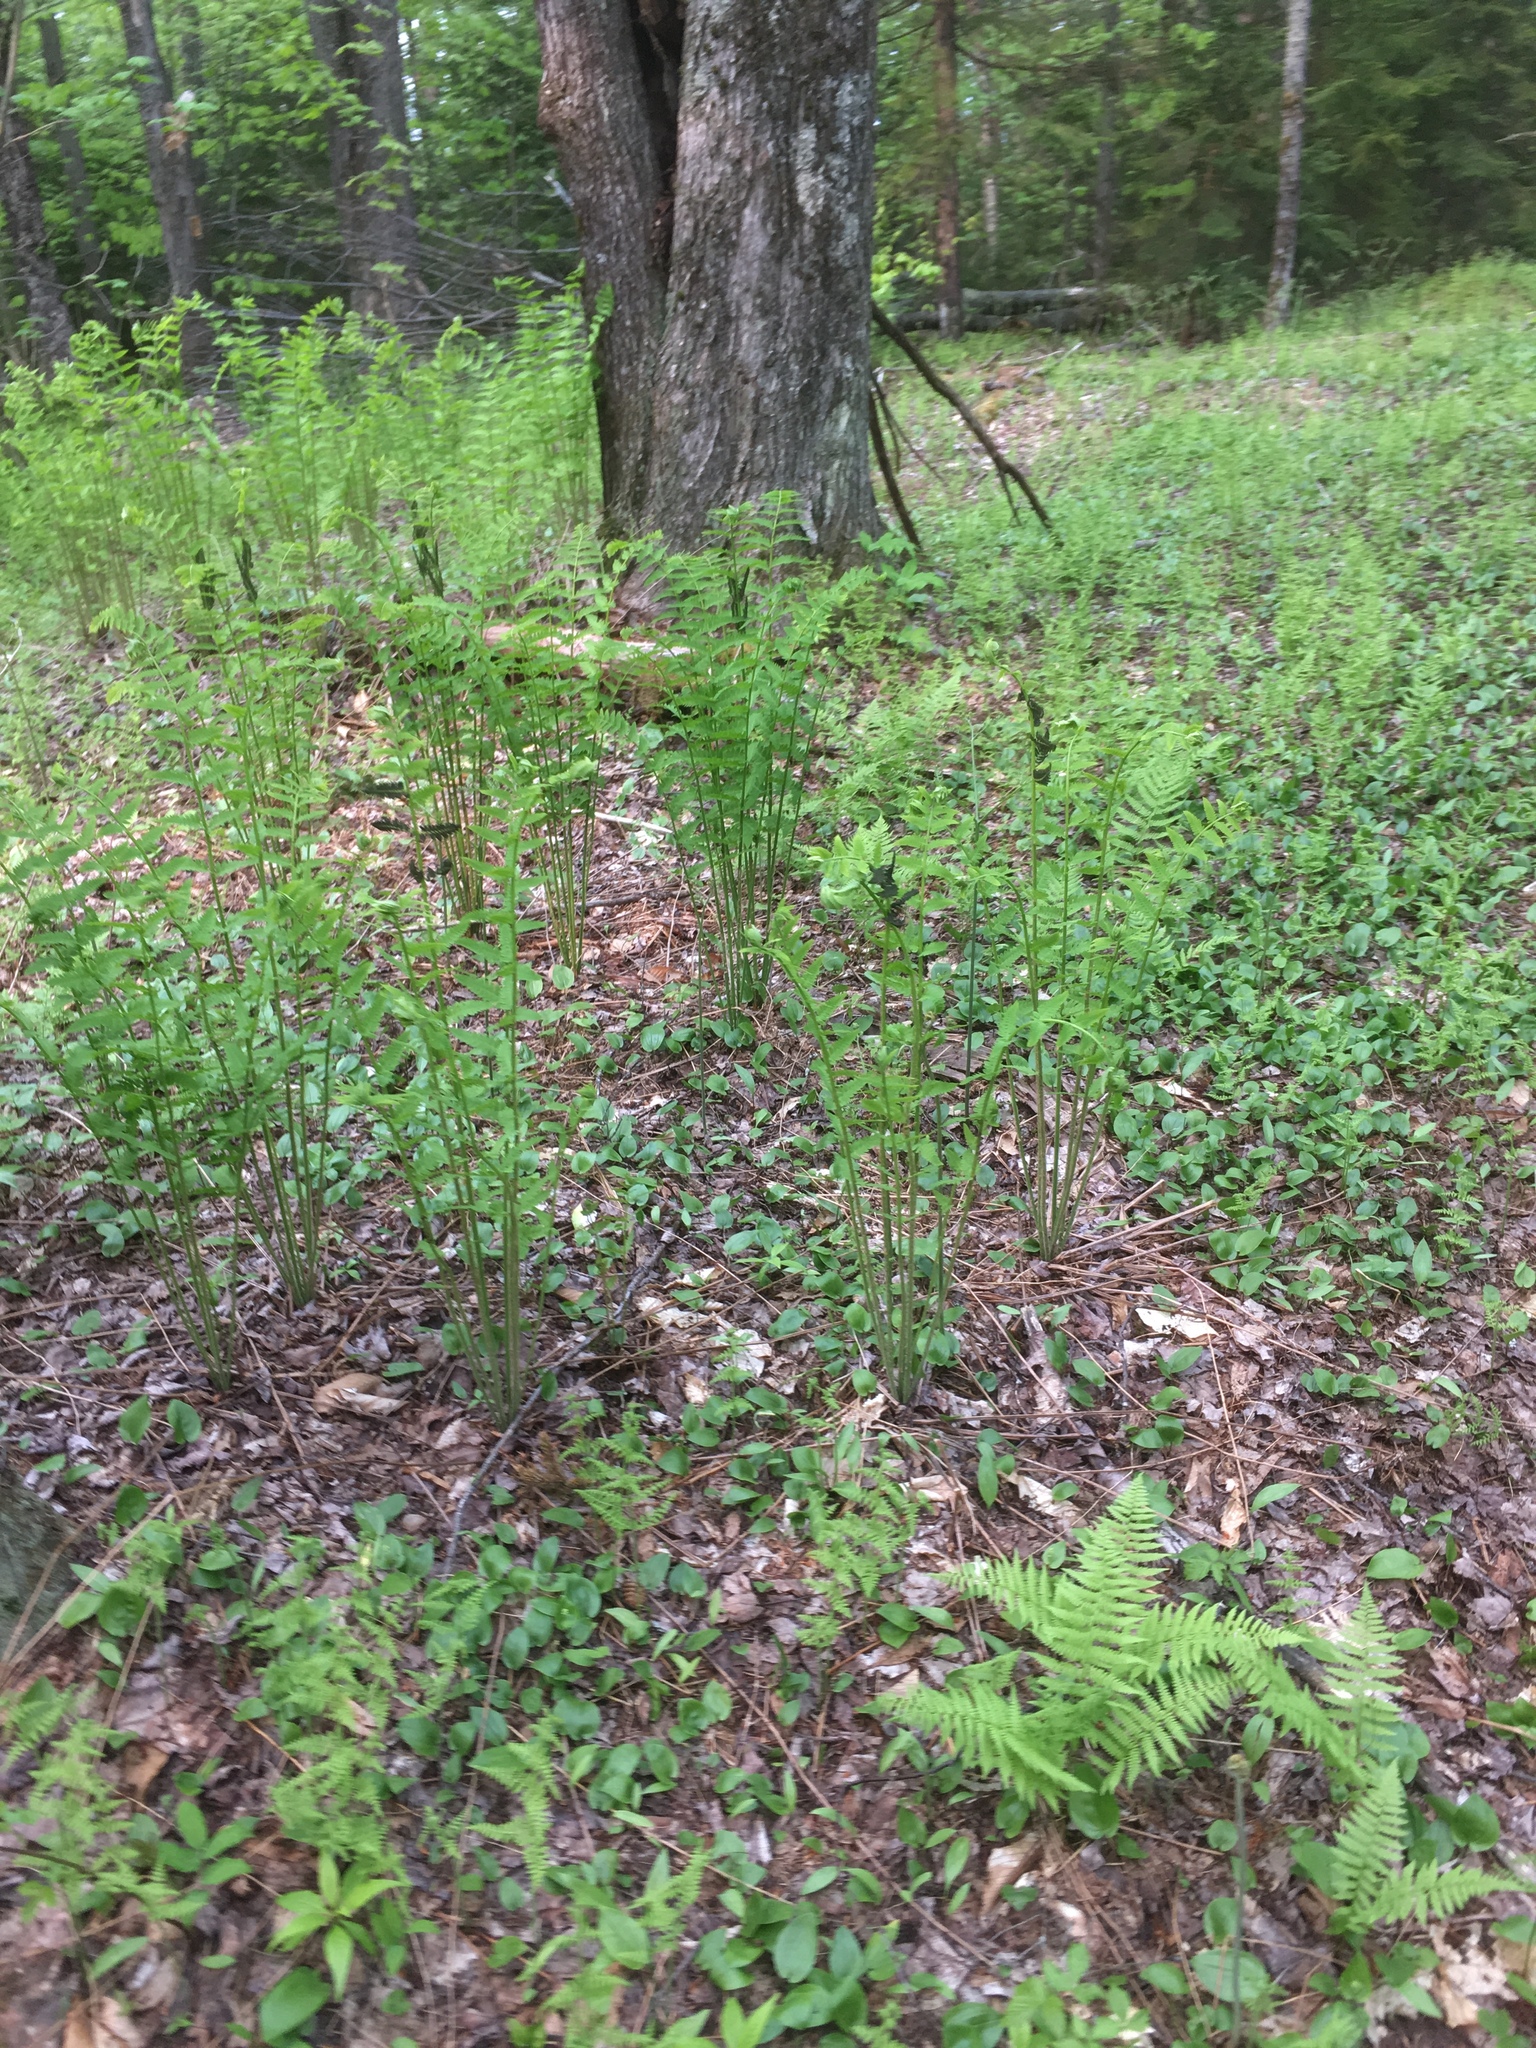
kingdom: Plantae
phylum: Tracheophyta
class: Polypodiopsida
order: Osmundales
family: Osmundaceae
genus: Claytosmunda
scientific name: Claytosmunda claytoniana
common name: Clayton's fern
